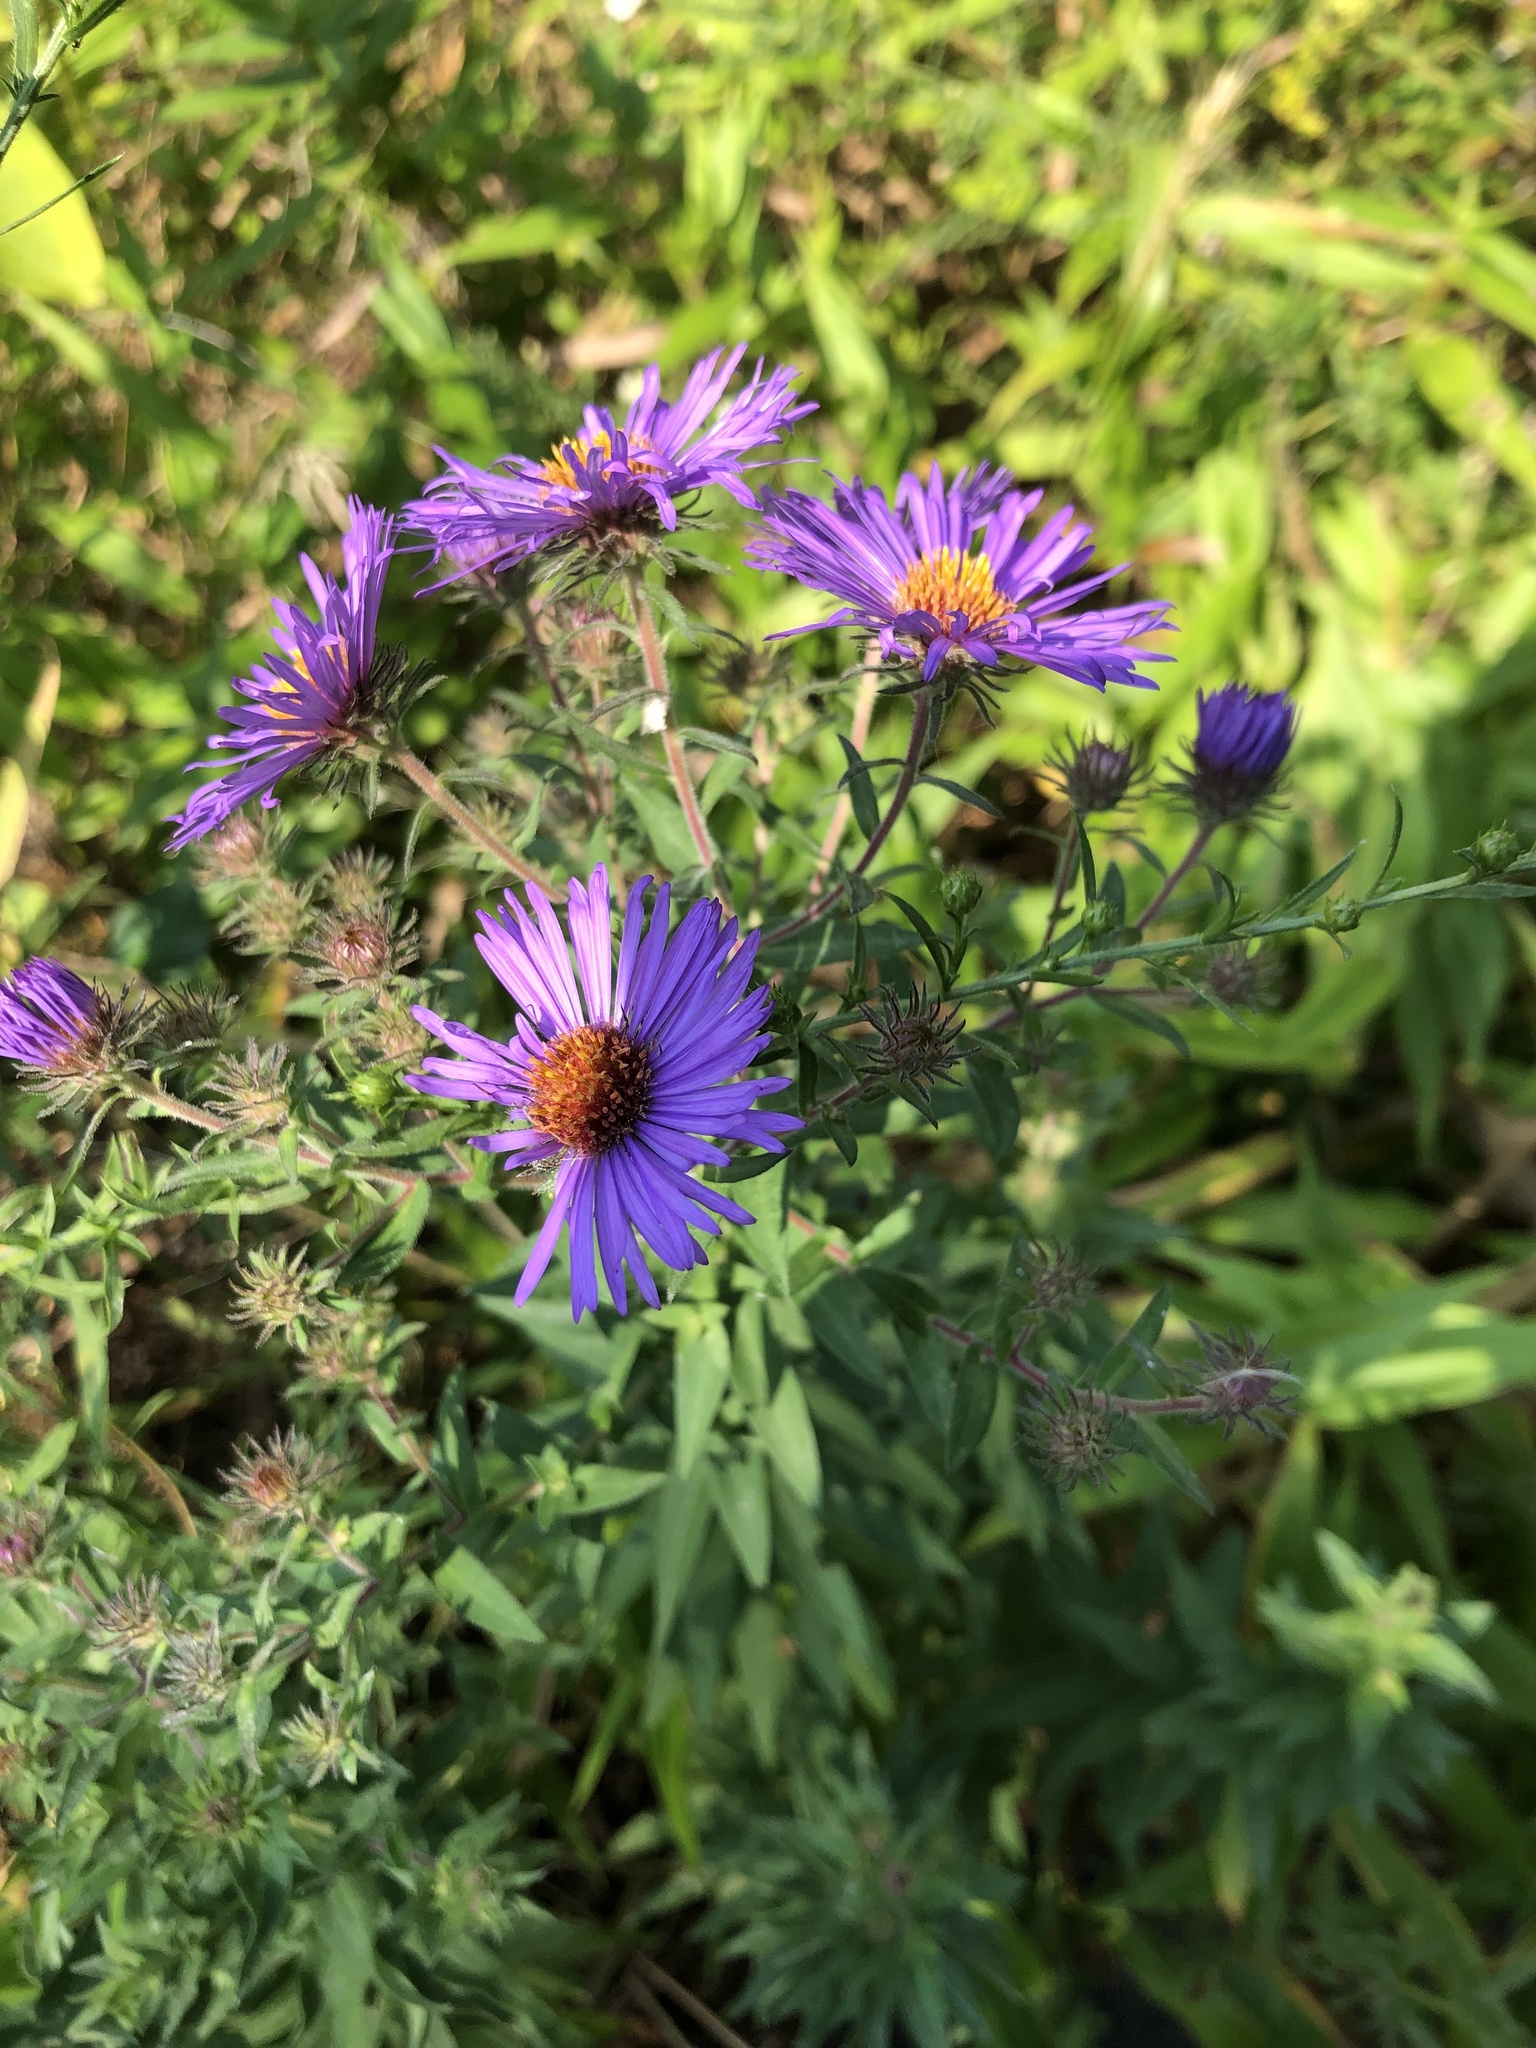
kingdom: Plantae
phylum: Tracheophyta
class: Magnoliopsida
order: Asterales
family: Asteraceae
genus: Symphyotrichum
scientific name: Symphyotrichum novae-angliae
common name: Michaelmas daisy
